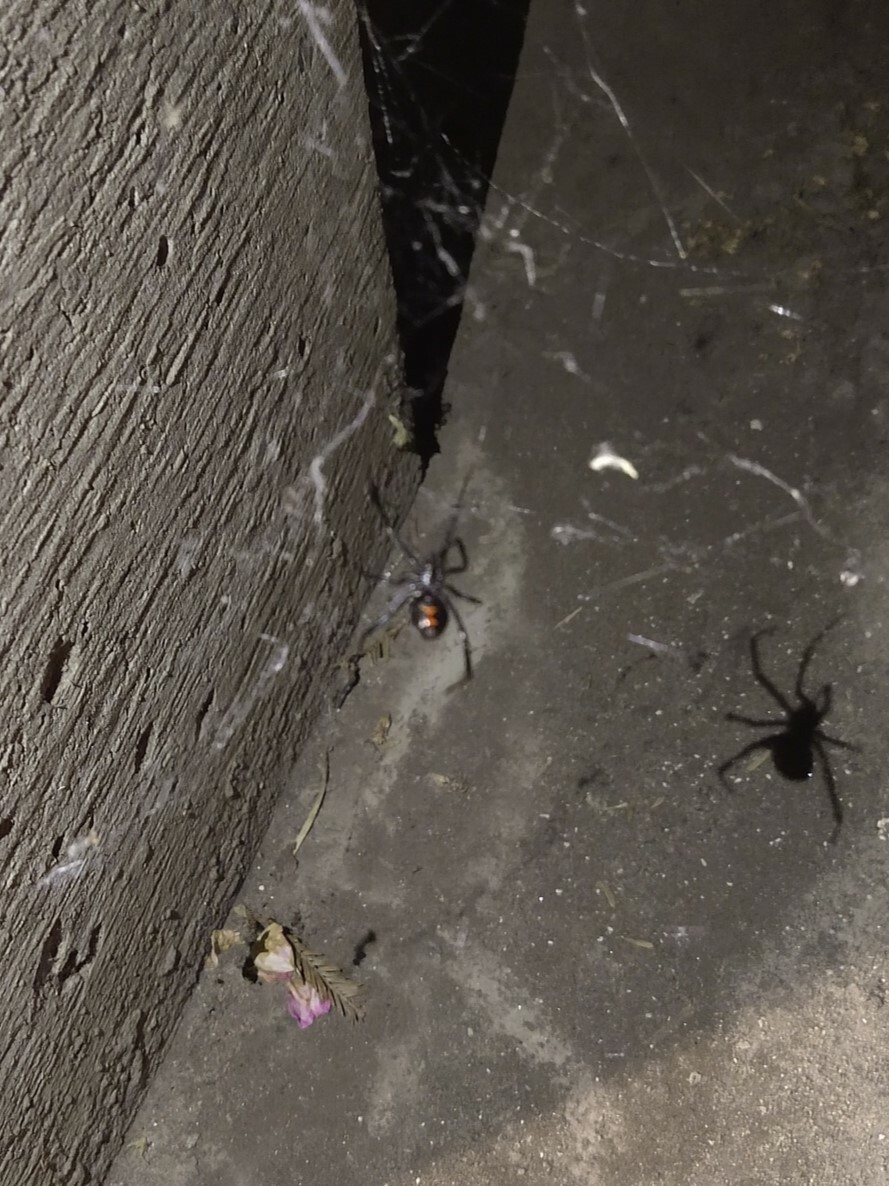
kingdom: Animalia
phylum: Arthropoda
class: Arachnida
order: Araneae
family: Theridiidae
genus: Latrodectus
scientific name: Latrodectus hesperus
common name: Western black widow
